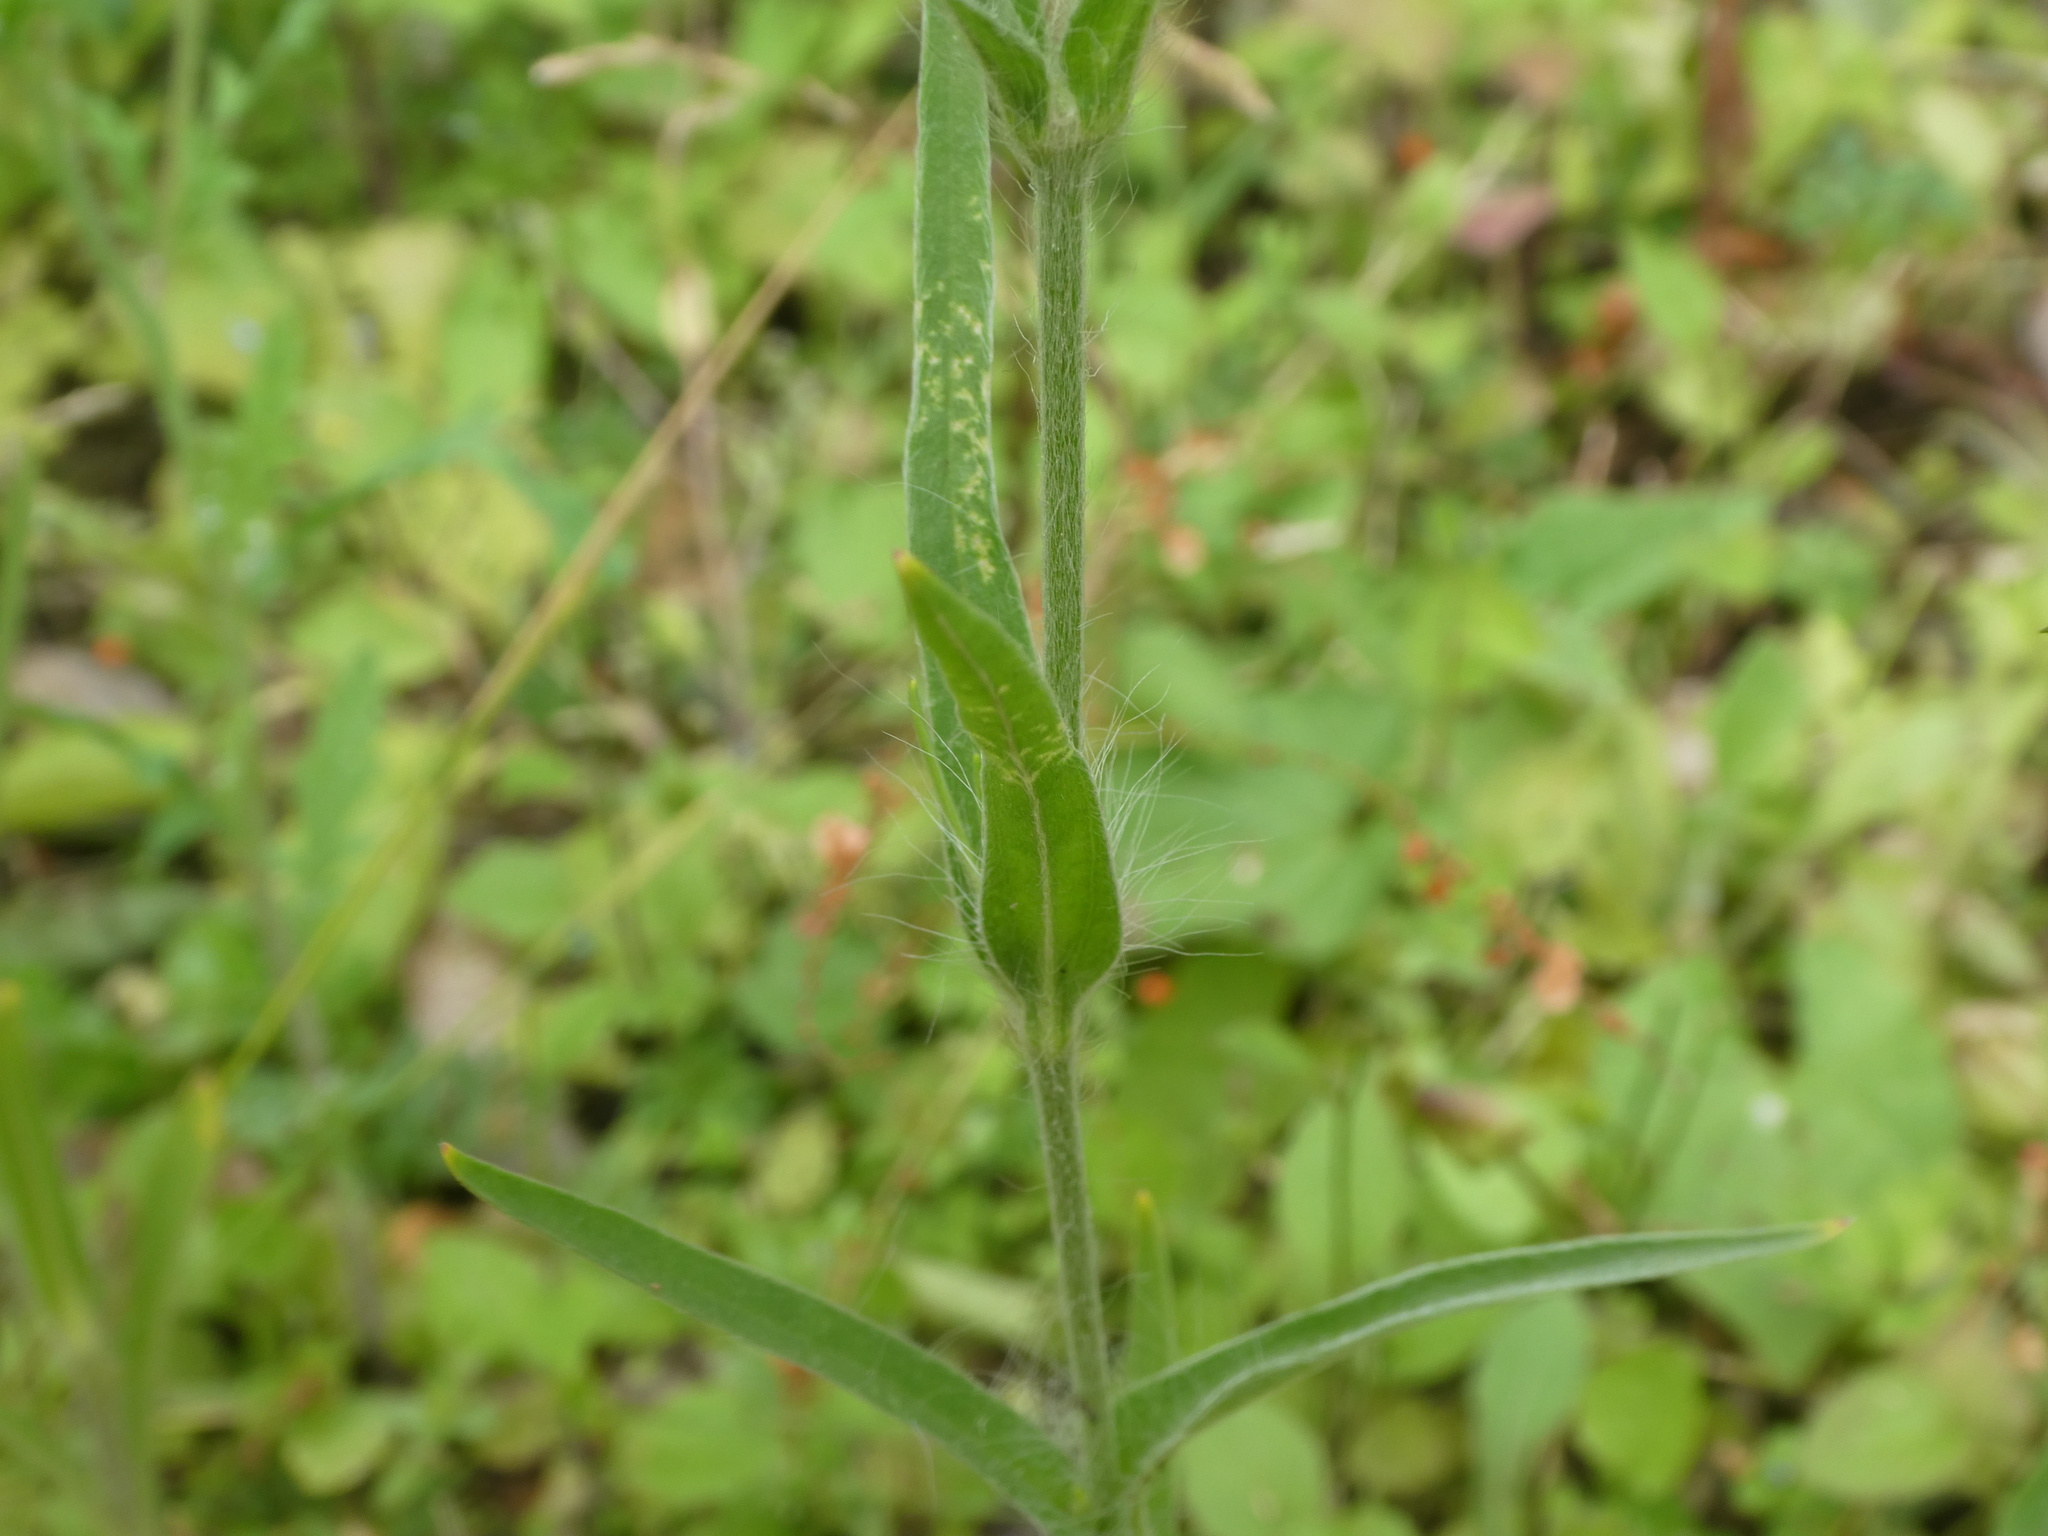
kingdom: Plantae
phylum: Tracheophyta
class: Magnoliopsida
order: Caryophyllales
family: Caryophyllaceae
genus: Agrostemma
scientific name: Agrostemma githago
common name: Common corncockle
